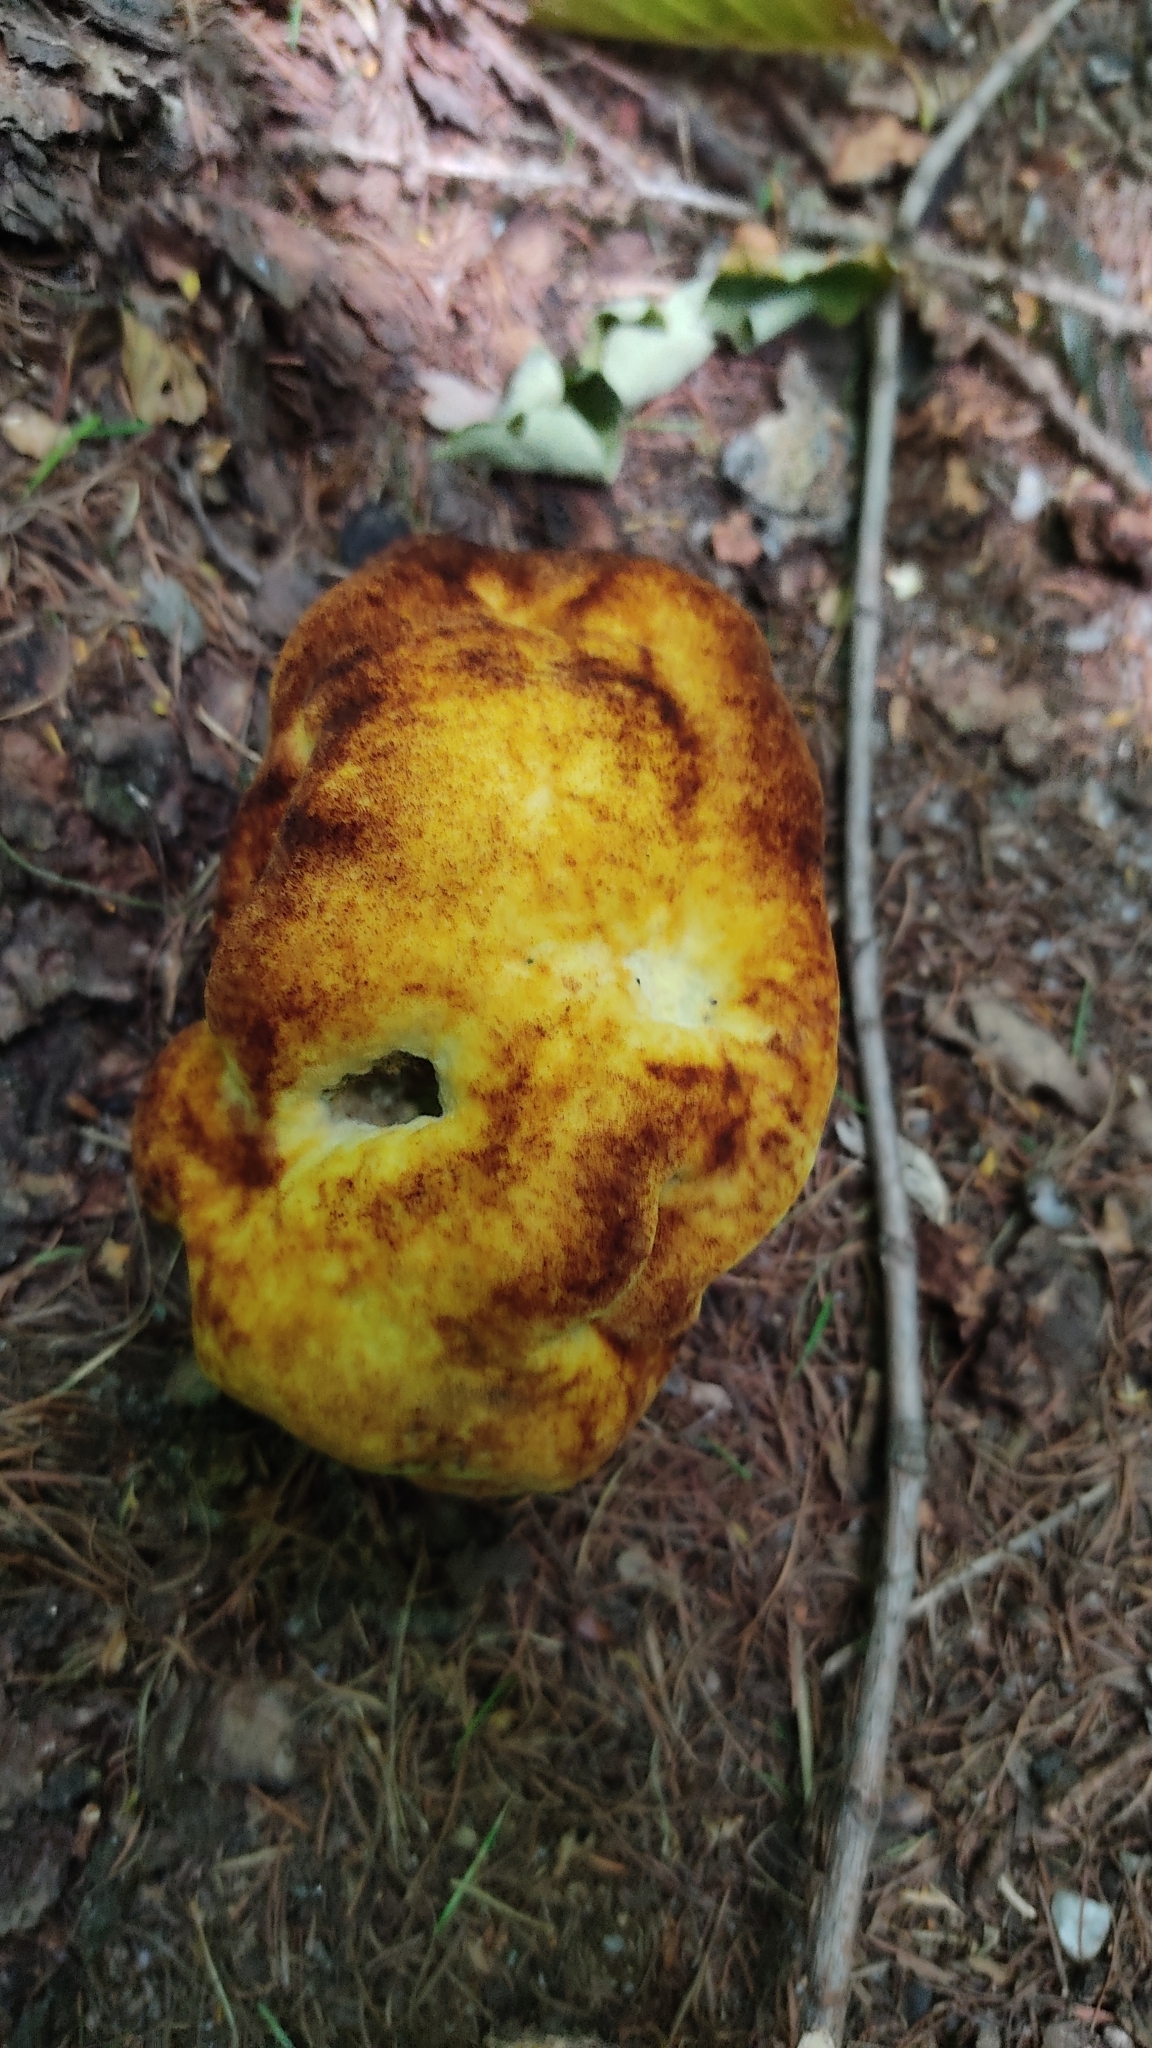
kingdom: Fungi
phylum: Basidiomycota
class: Agaricomycetes
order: Polyporales
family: Laetiporaceae
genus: Phaeolus
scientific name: Phaeolus schweinitzii
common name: Dyer's mazegill
